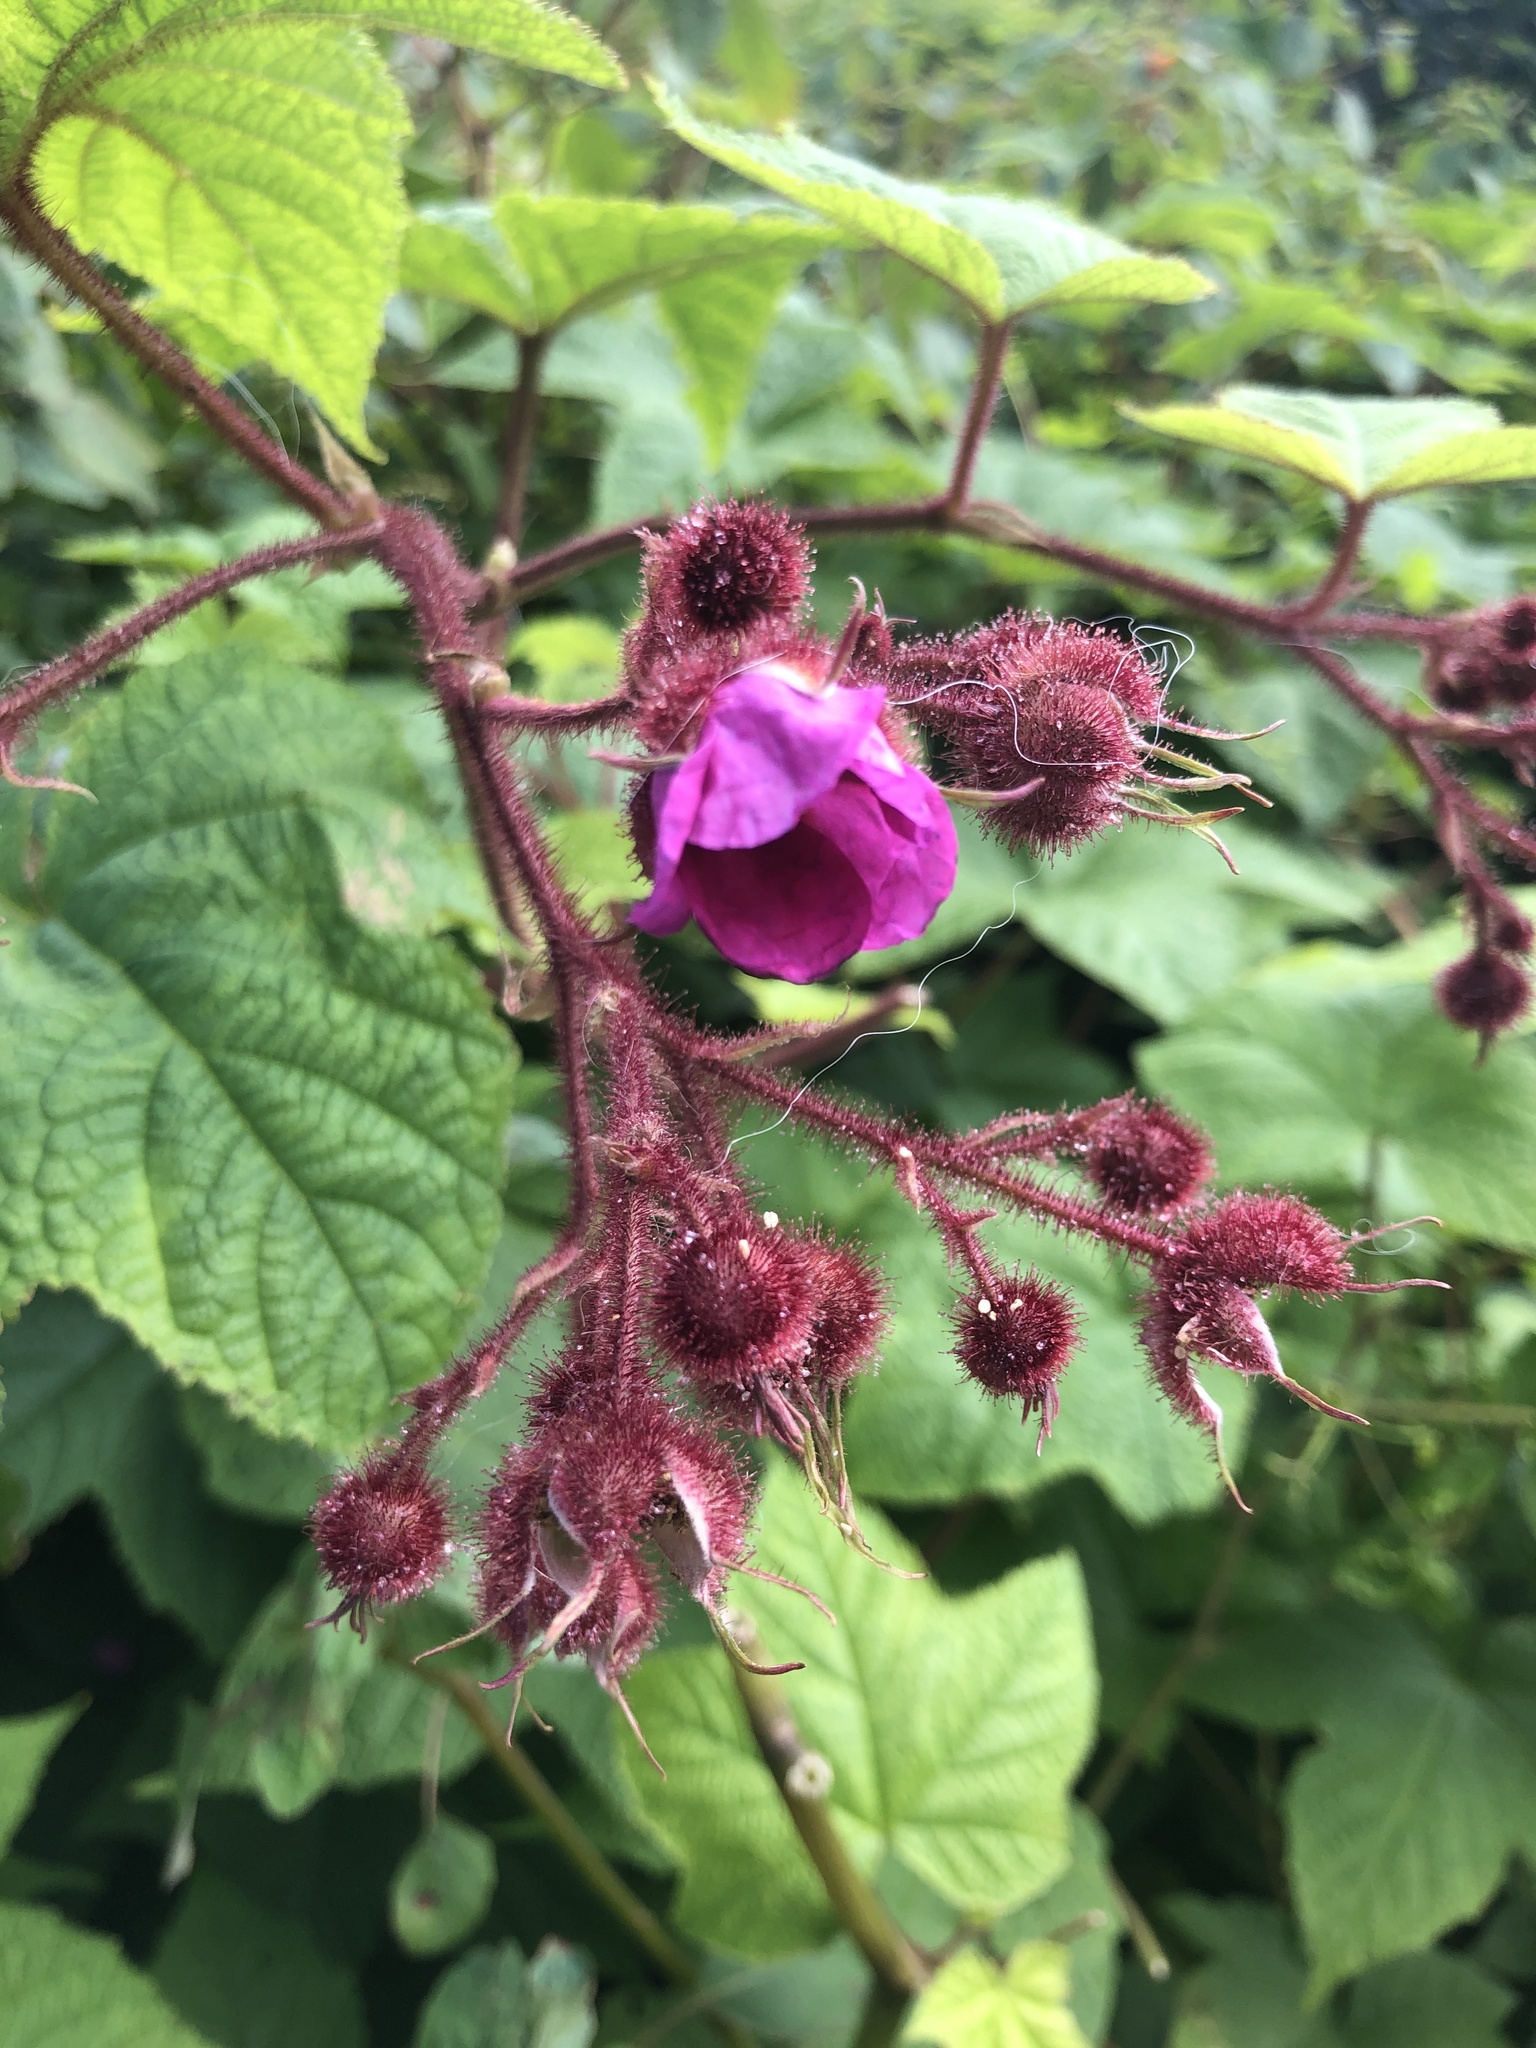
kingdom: Plantae
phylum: Tracheophyta
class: Magnoliopsida
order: Rosales
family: Rosaceae
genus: Rubus
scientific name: Rubus odoratus
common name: Purple-flowered raspberry
